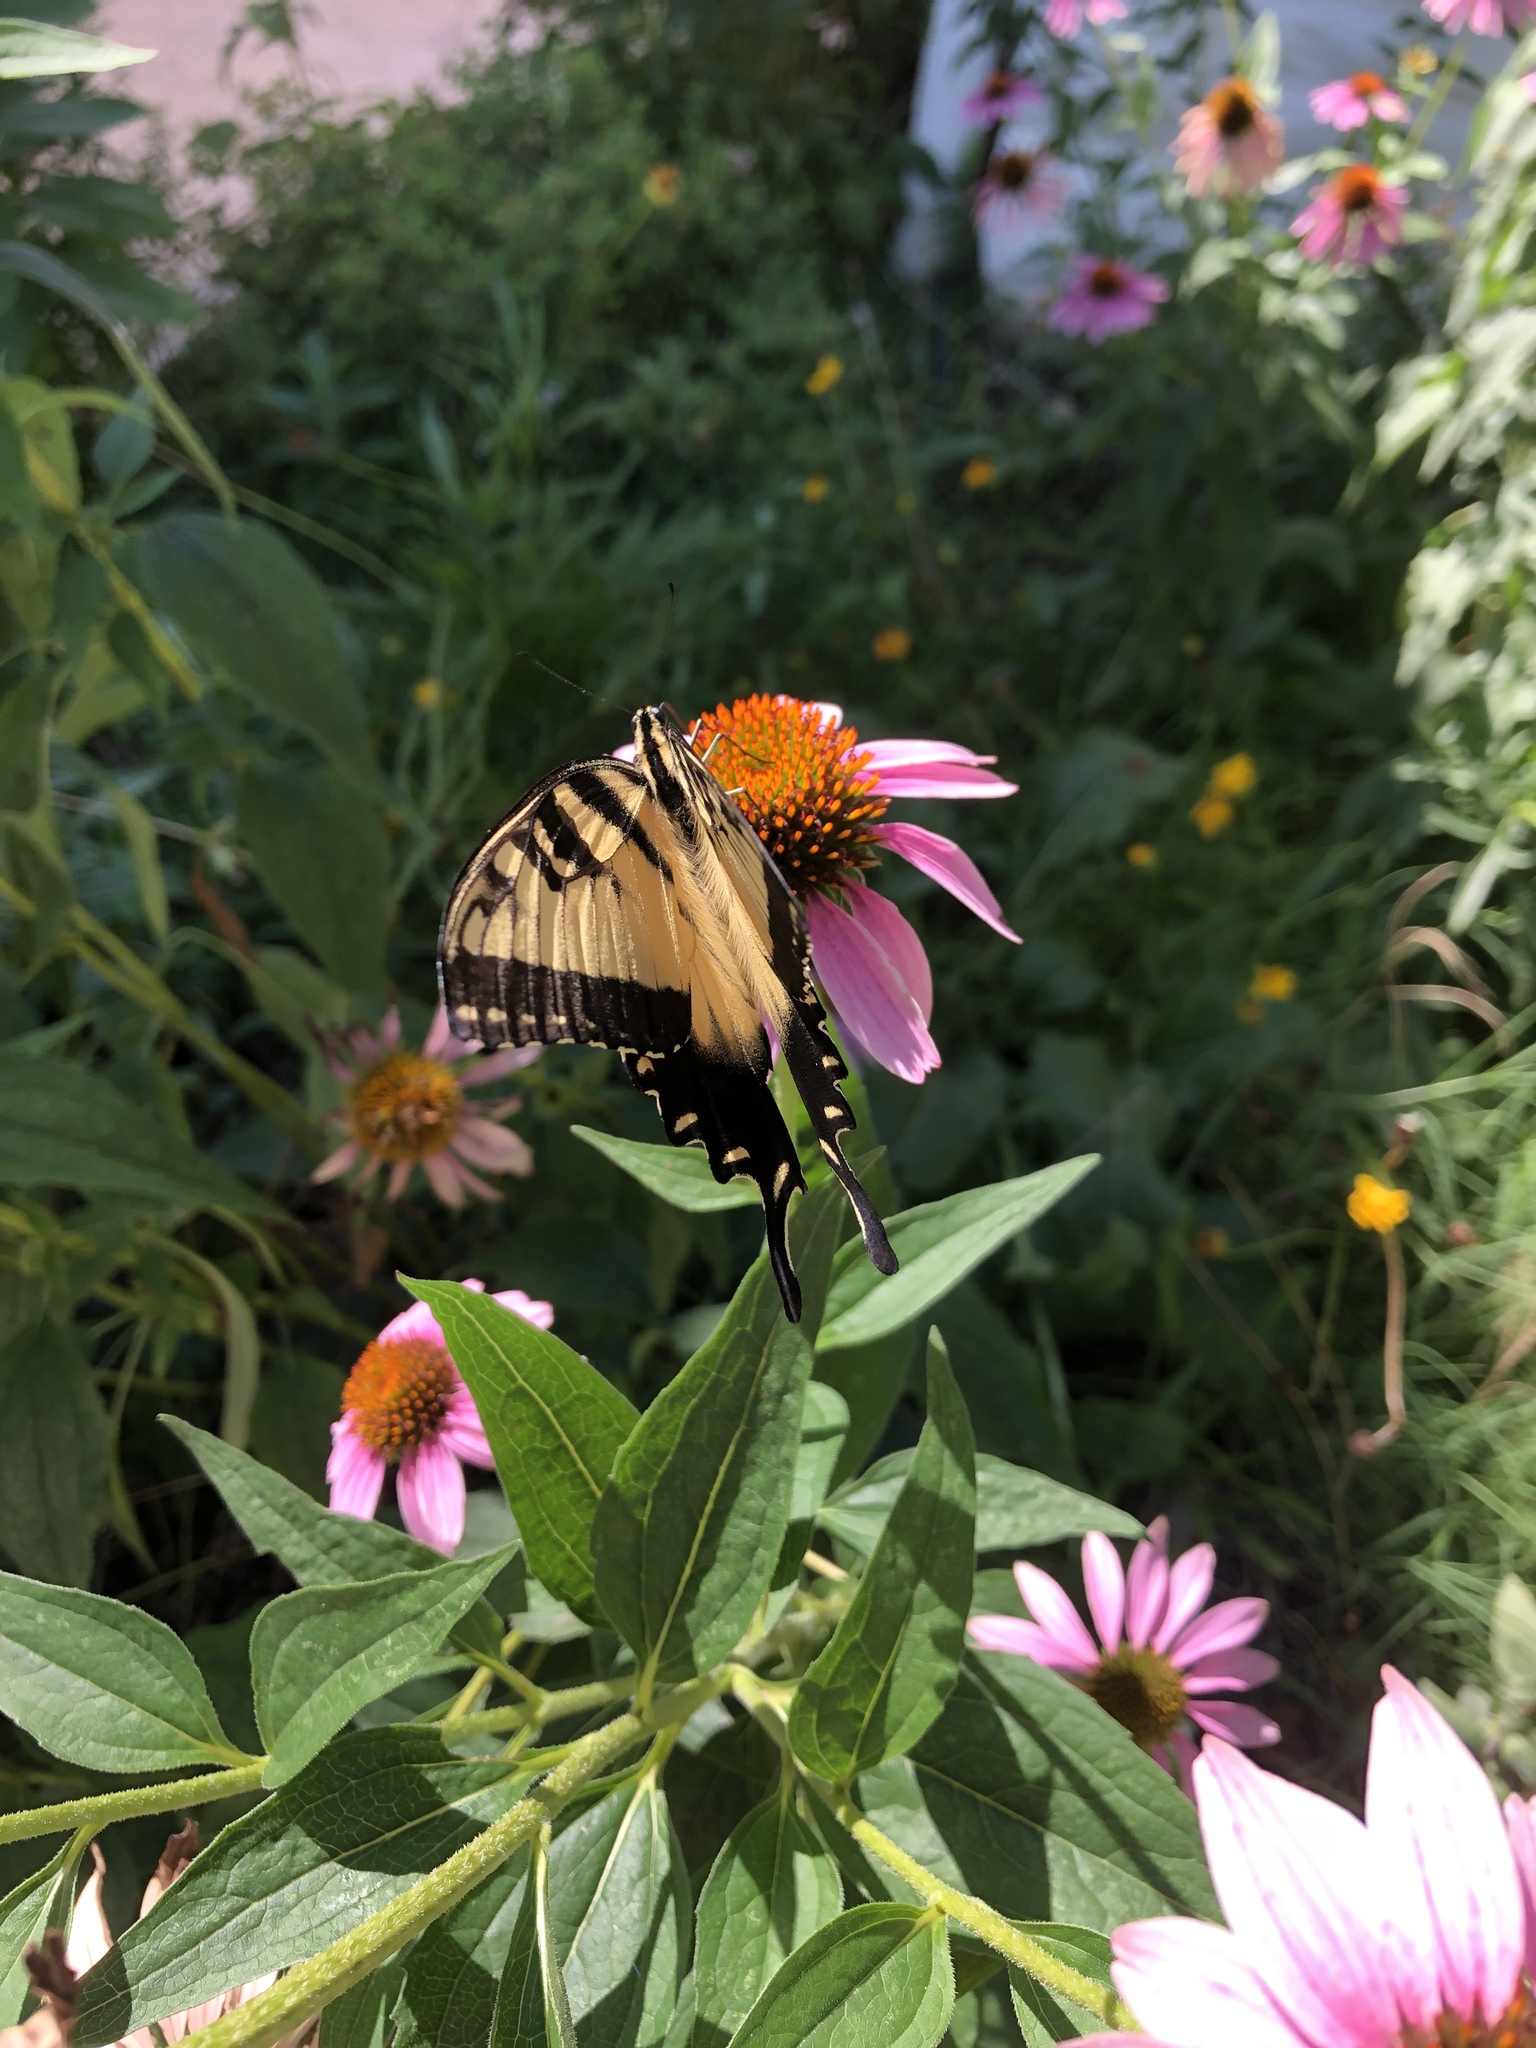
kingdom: Animalia
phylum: Arthropoda
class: Insecta
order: Lepidoptera
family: Papilionidae
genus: Papilio
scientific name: Papilio glaucus
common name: Tiger swallowtail
